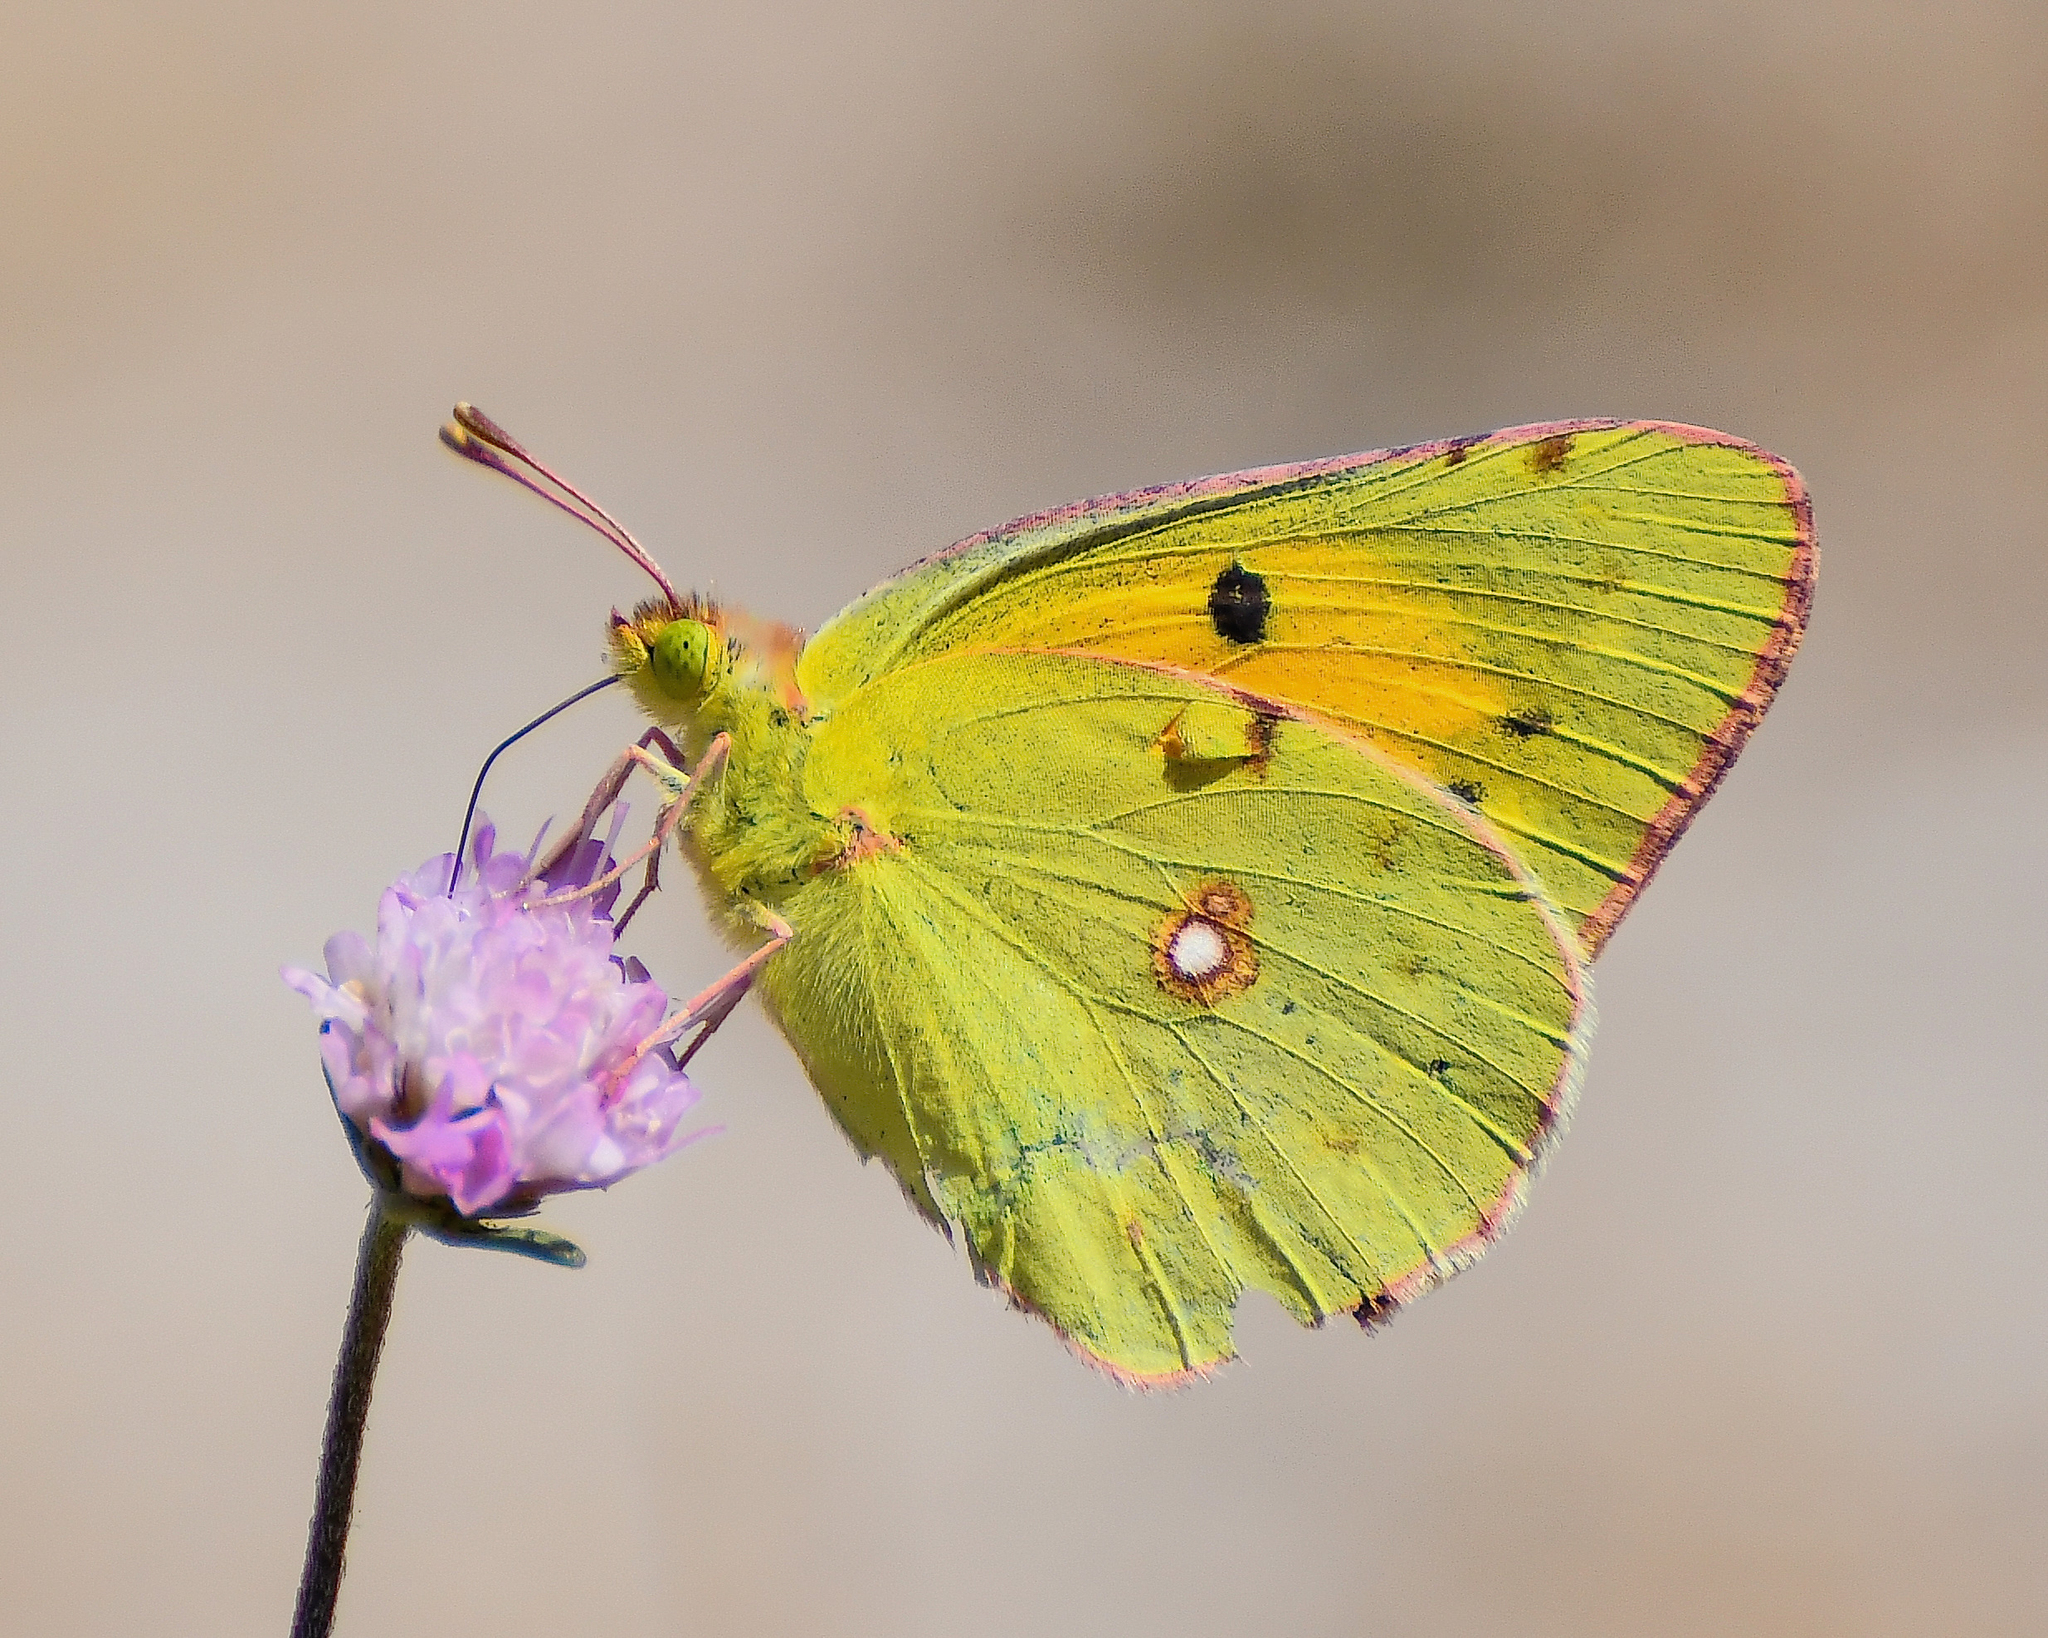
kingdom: Animalia
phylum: Arthropoda
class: Insecta
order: Lepidoptera
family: Pieridae
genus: Colias
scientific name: Colias croceus
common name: Clouded yellow
